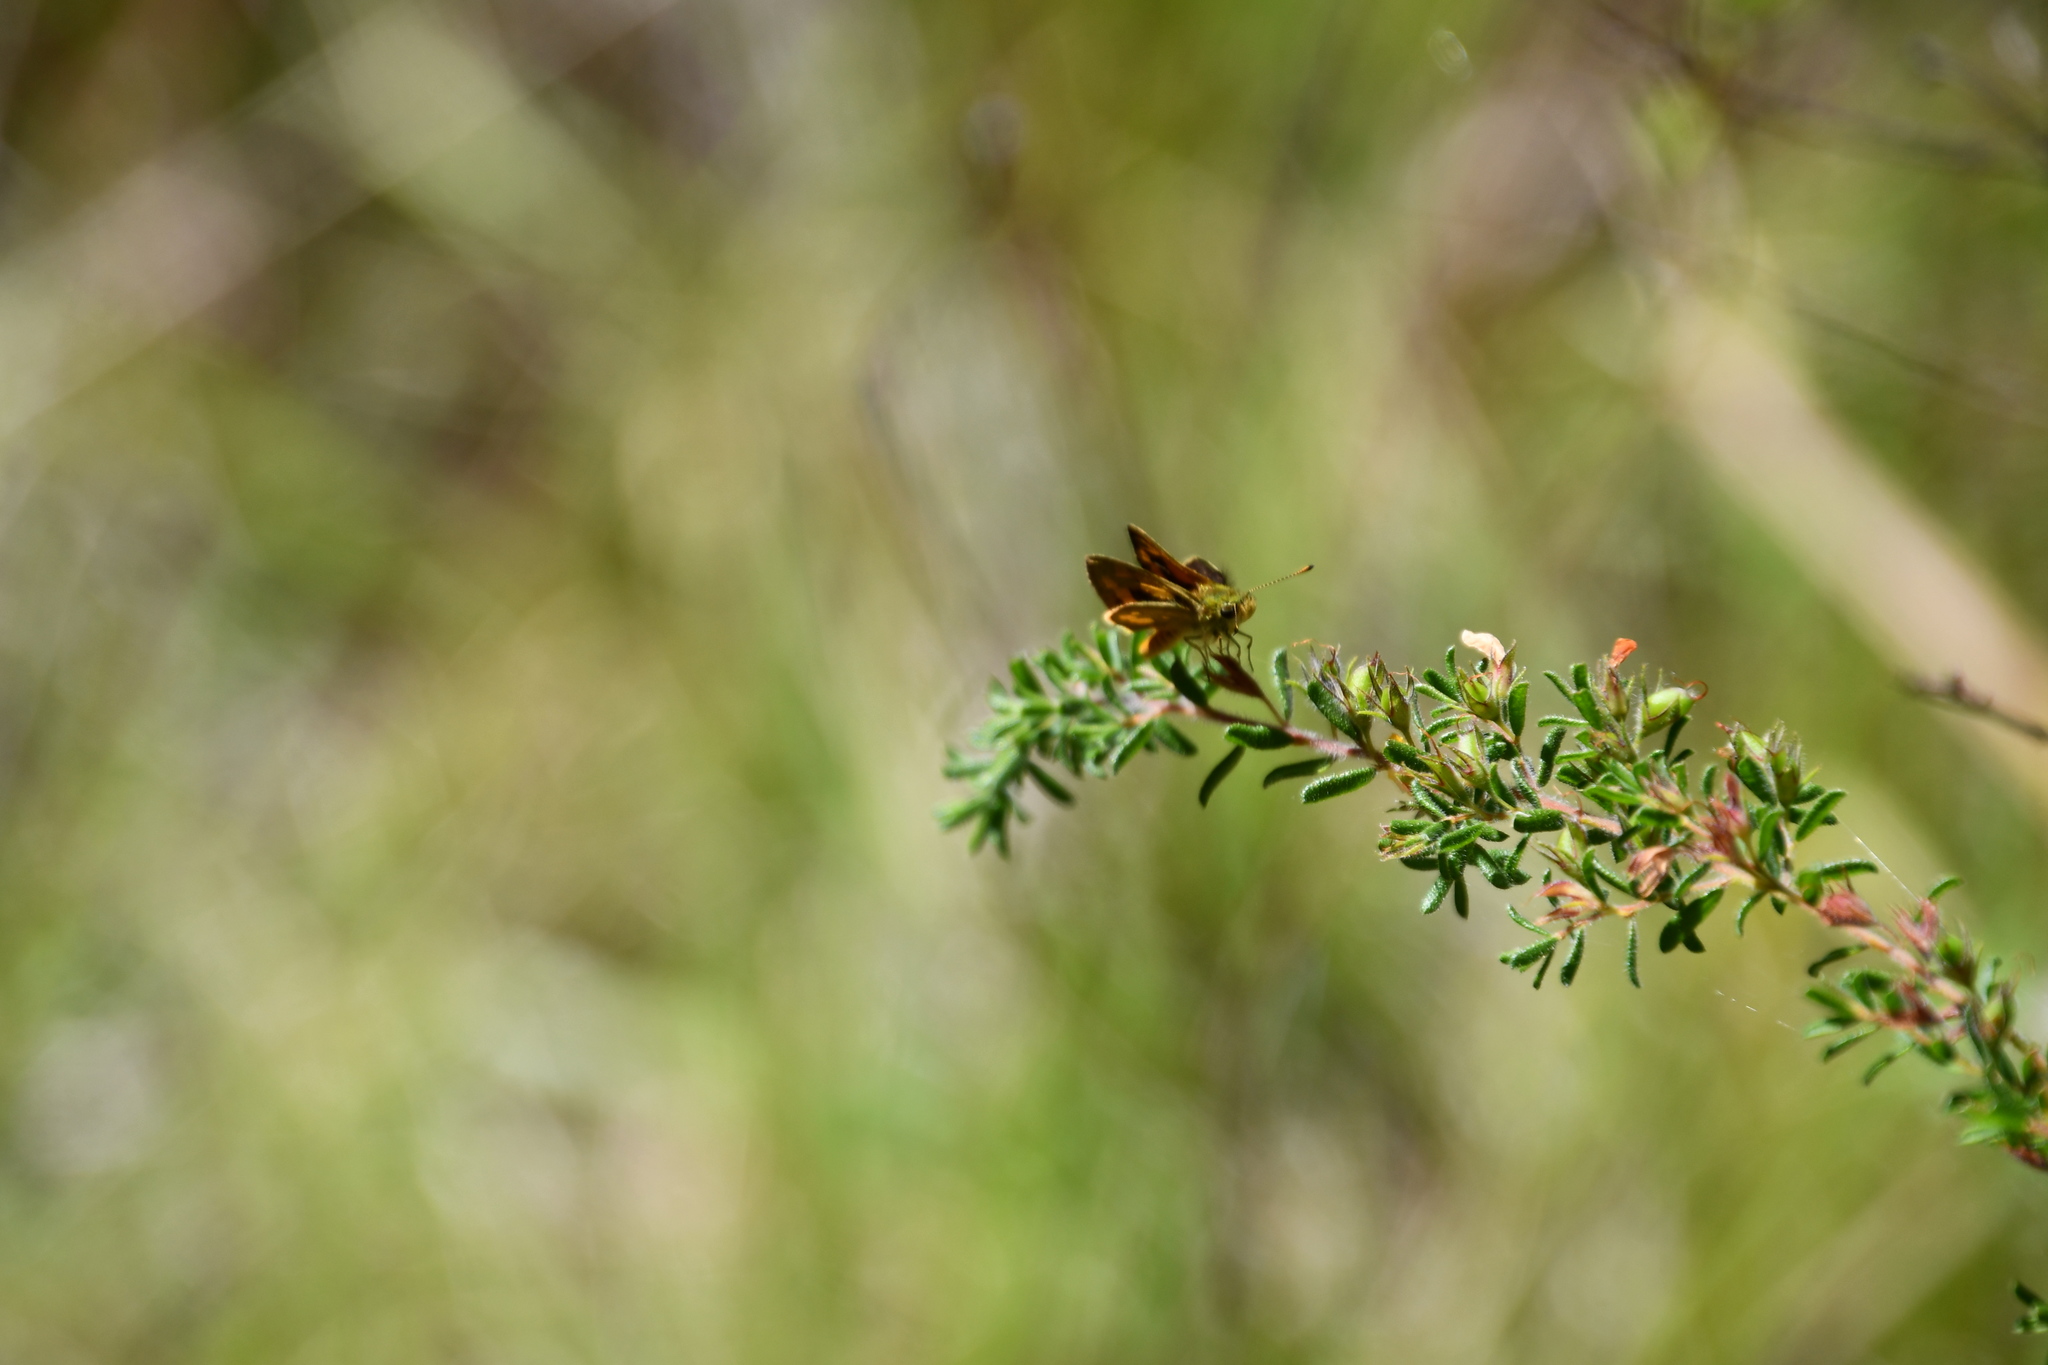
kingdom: Animalia
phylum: Arthropoda
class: Insecta
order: Lepidoptera
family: Hesperiidae
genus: Ocybadistes
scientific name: Ocybadistes walkeri
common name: Yellow-banded dart
